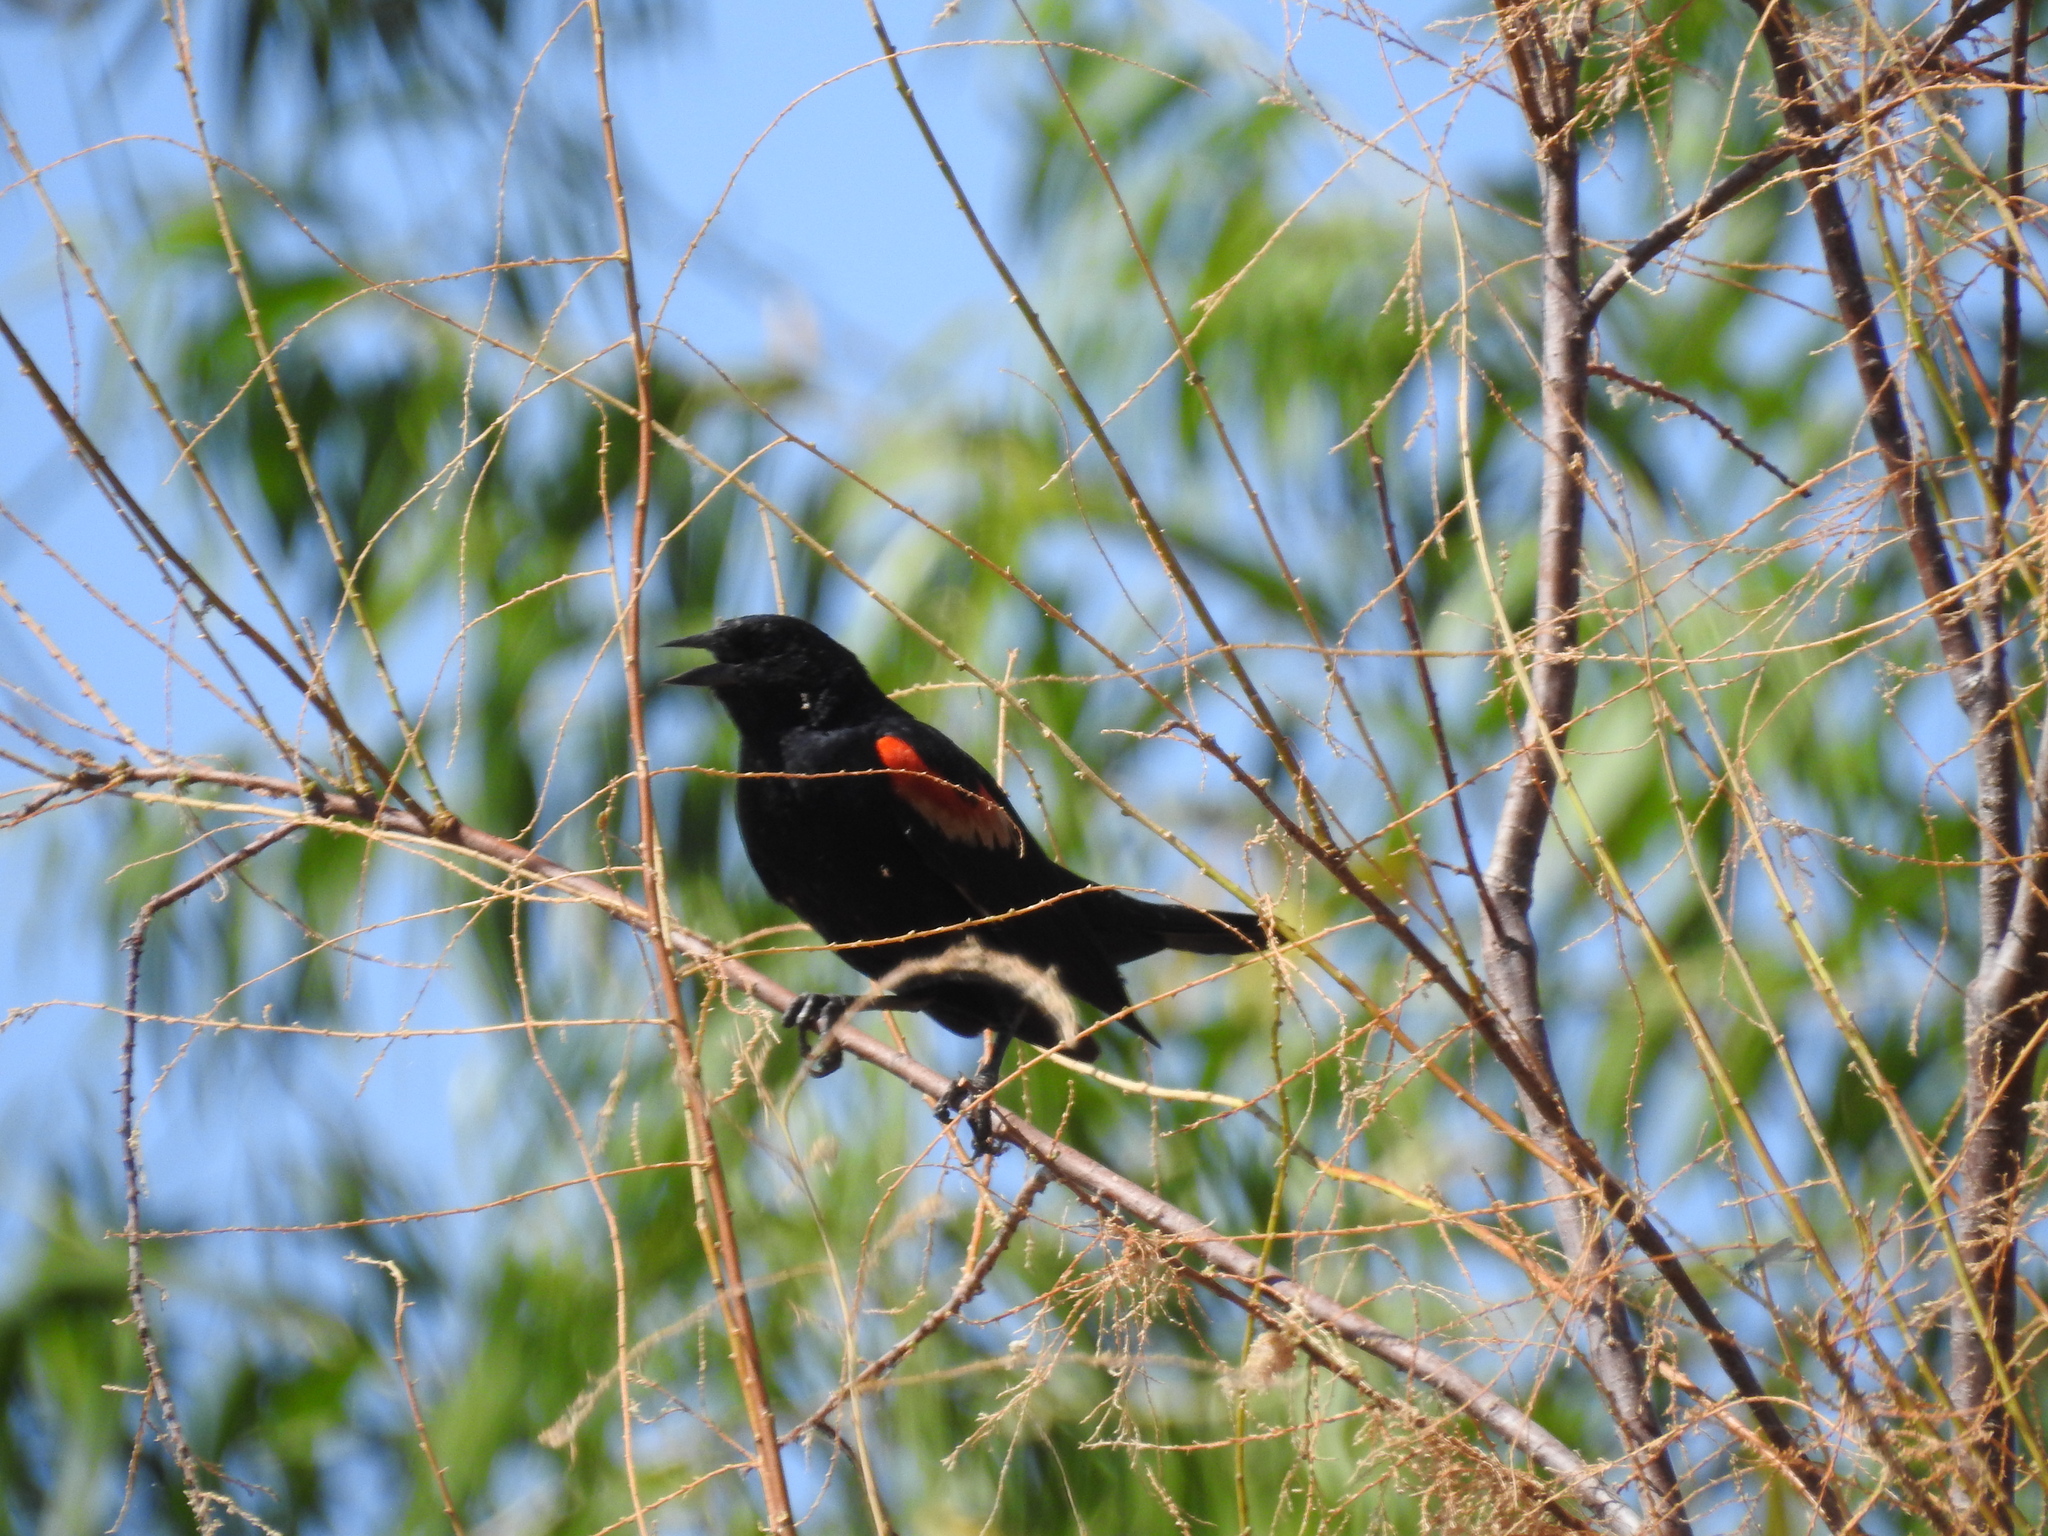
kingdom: Animalia
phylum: Chordata
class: Aves
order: Passeriformes
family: Icteridae
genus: Agelaius
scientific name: Agelaius phoeniceus
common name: Red-winged blackbird
